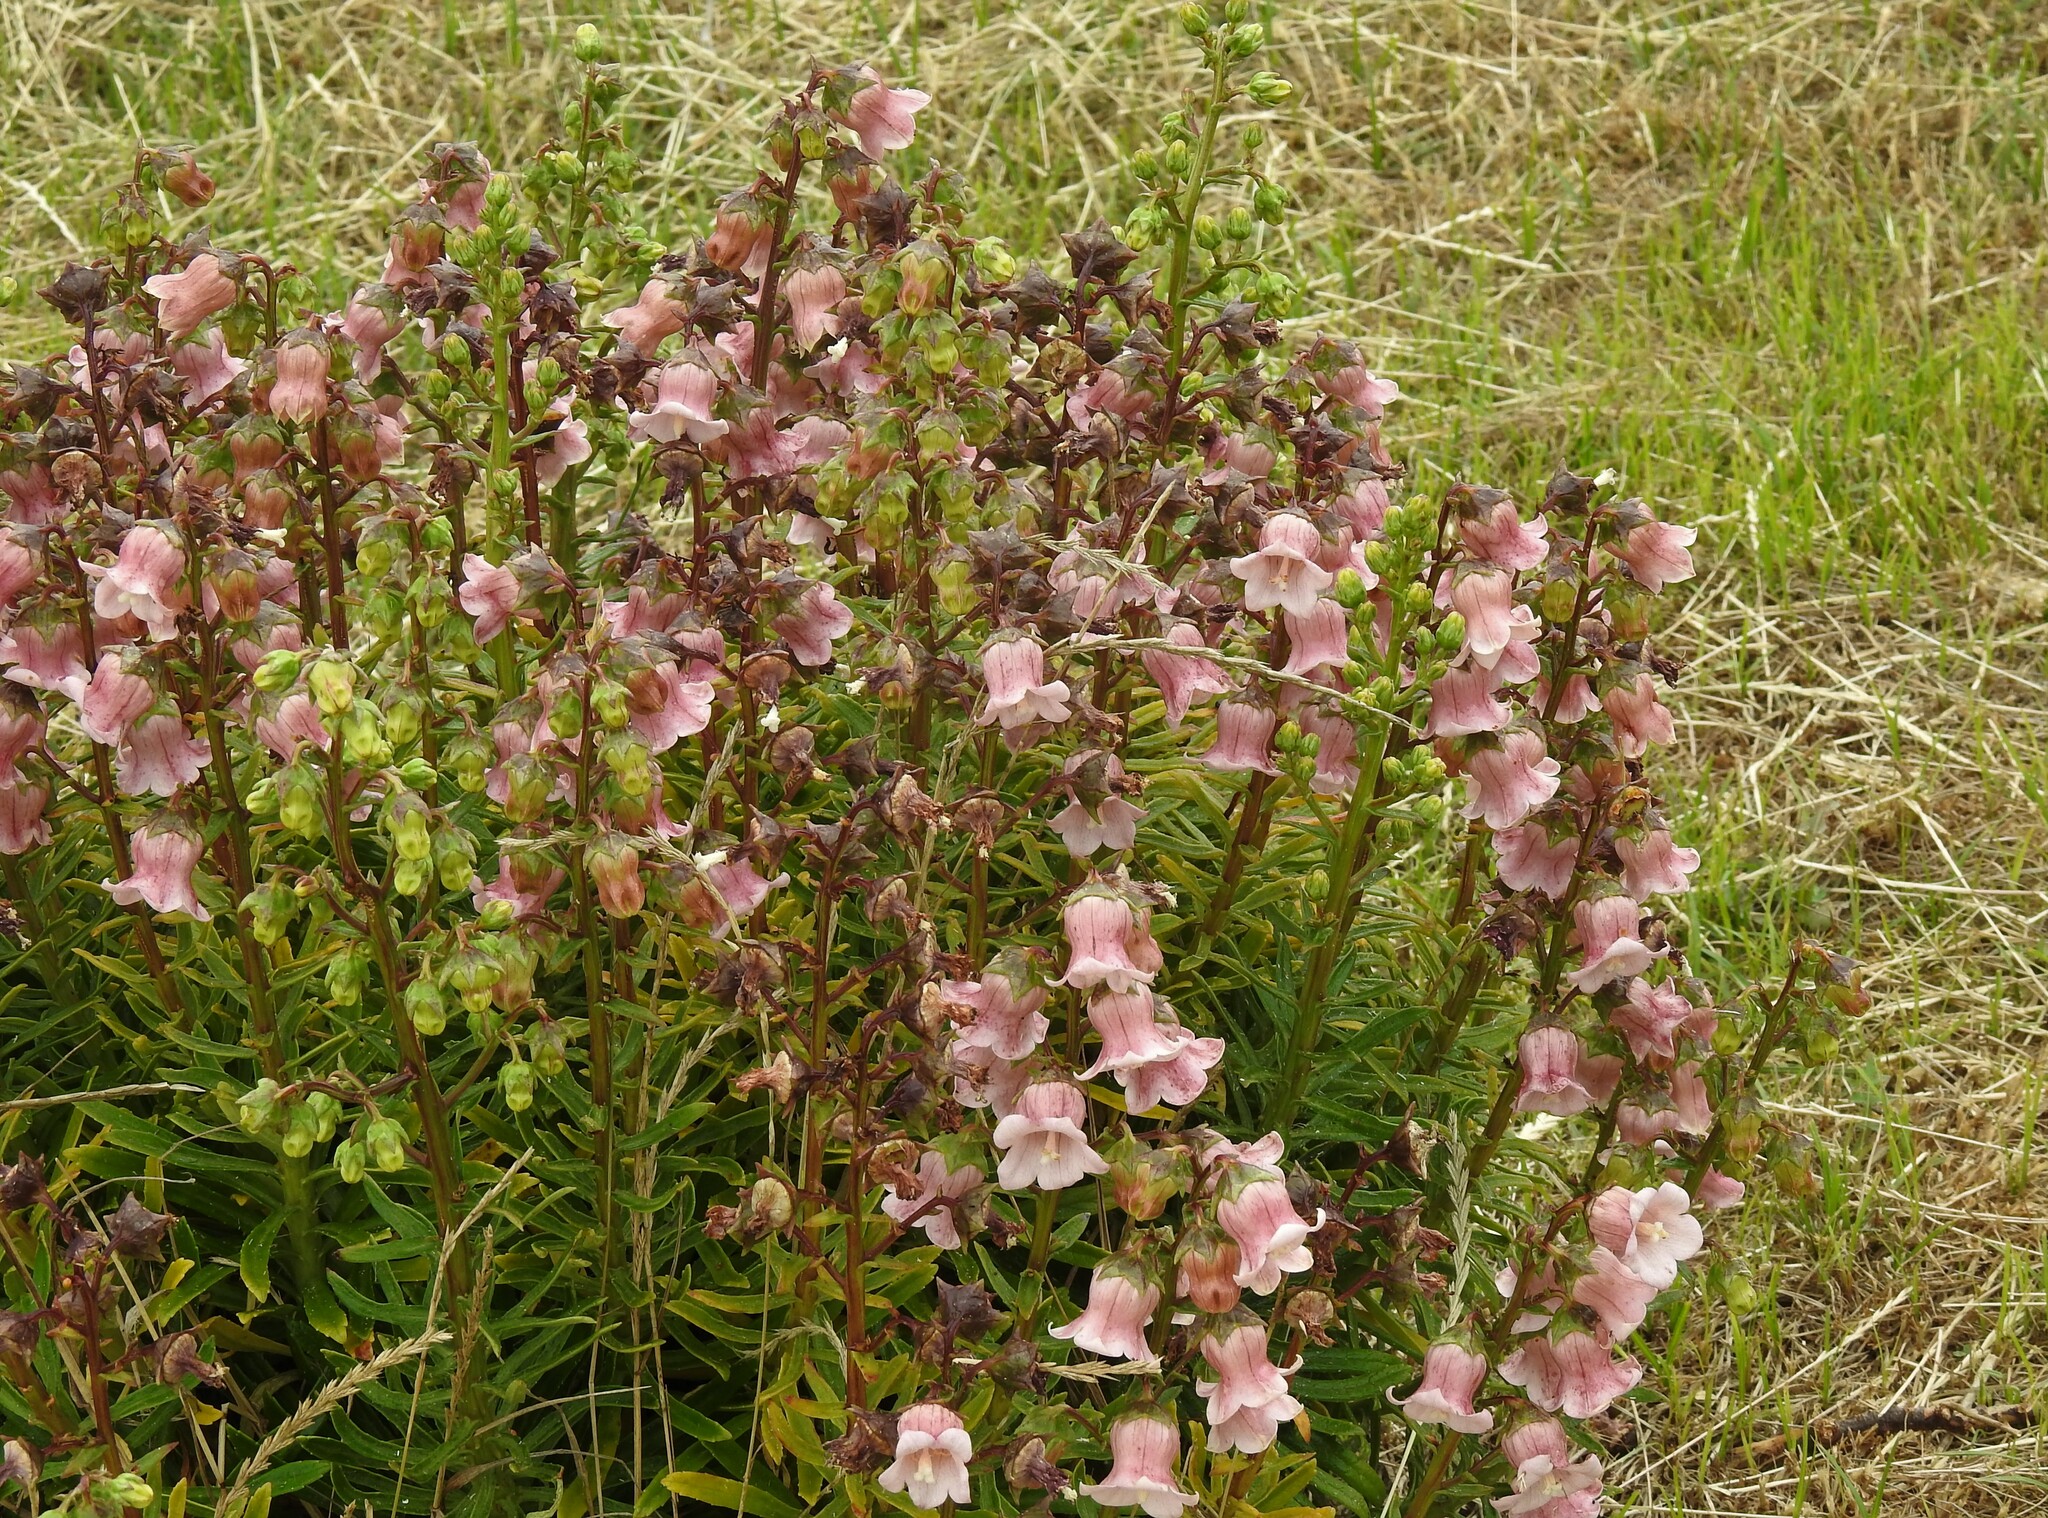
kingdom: Plantae
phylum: Tracheophyta
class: Magnoliopsida
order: Asterales
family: Campanulaceae
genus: Campanula
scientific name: Campanula vidalii
